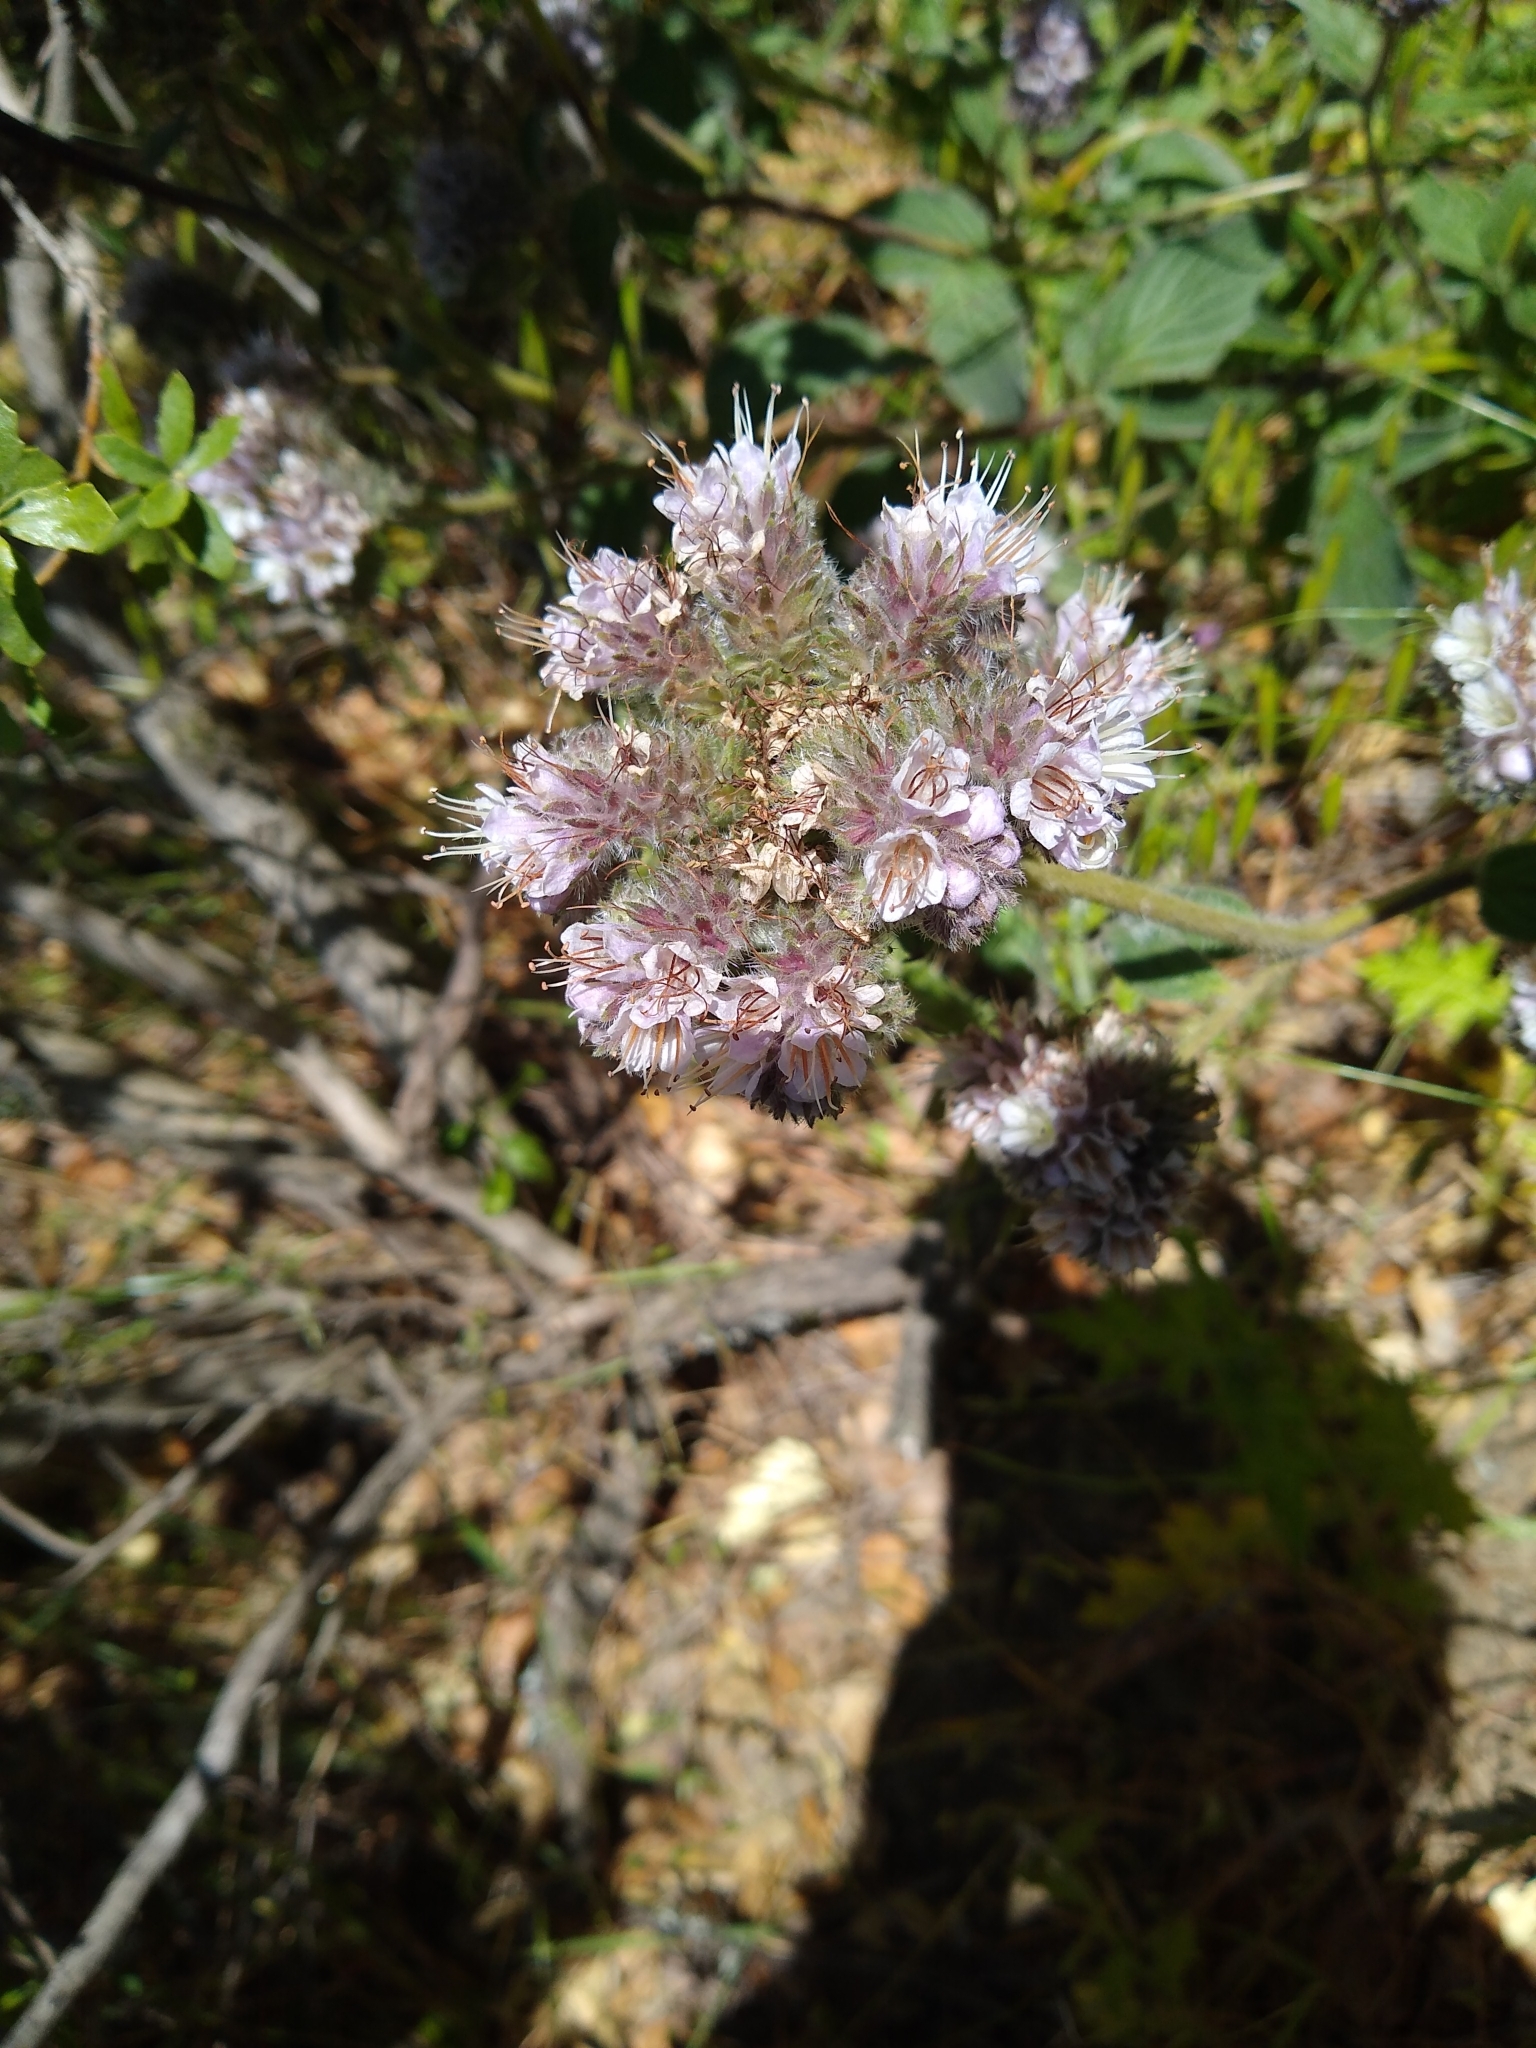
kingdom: Plantae
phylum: Tracheophyta
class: Magnoliopsida
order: Boraginales
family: Hydrophyllaceae
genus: Phacelia
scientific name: Phacelia californica
